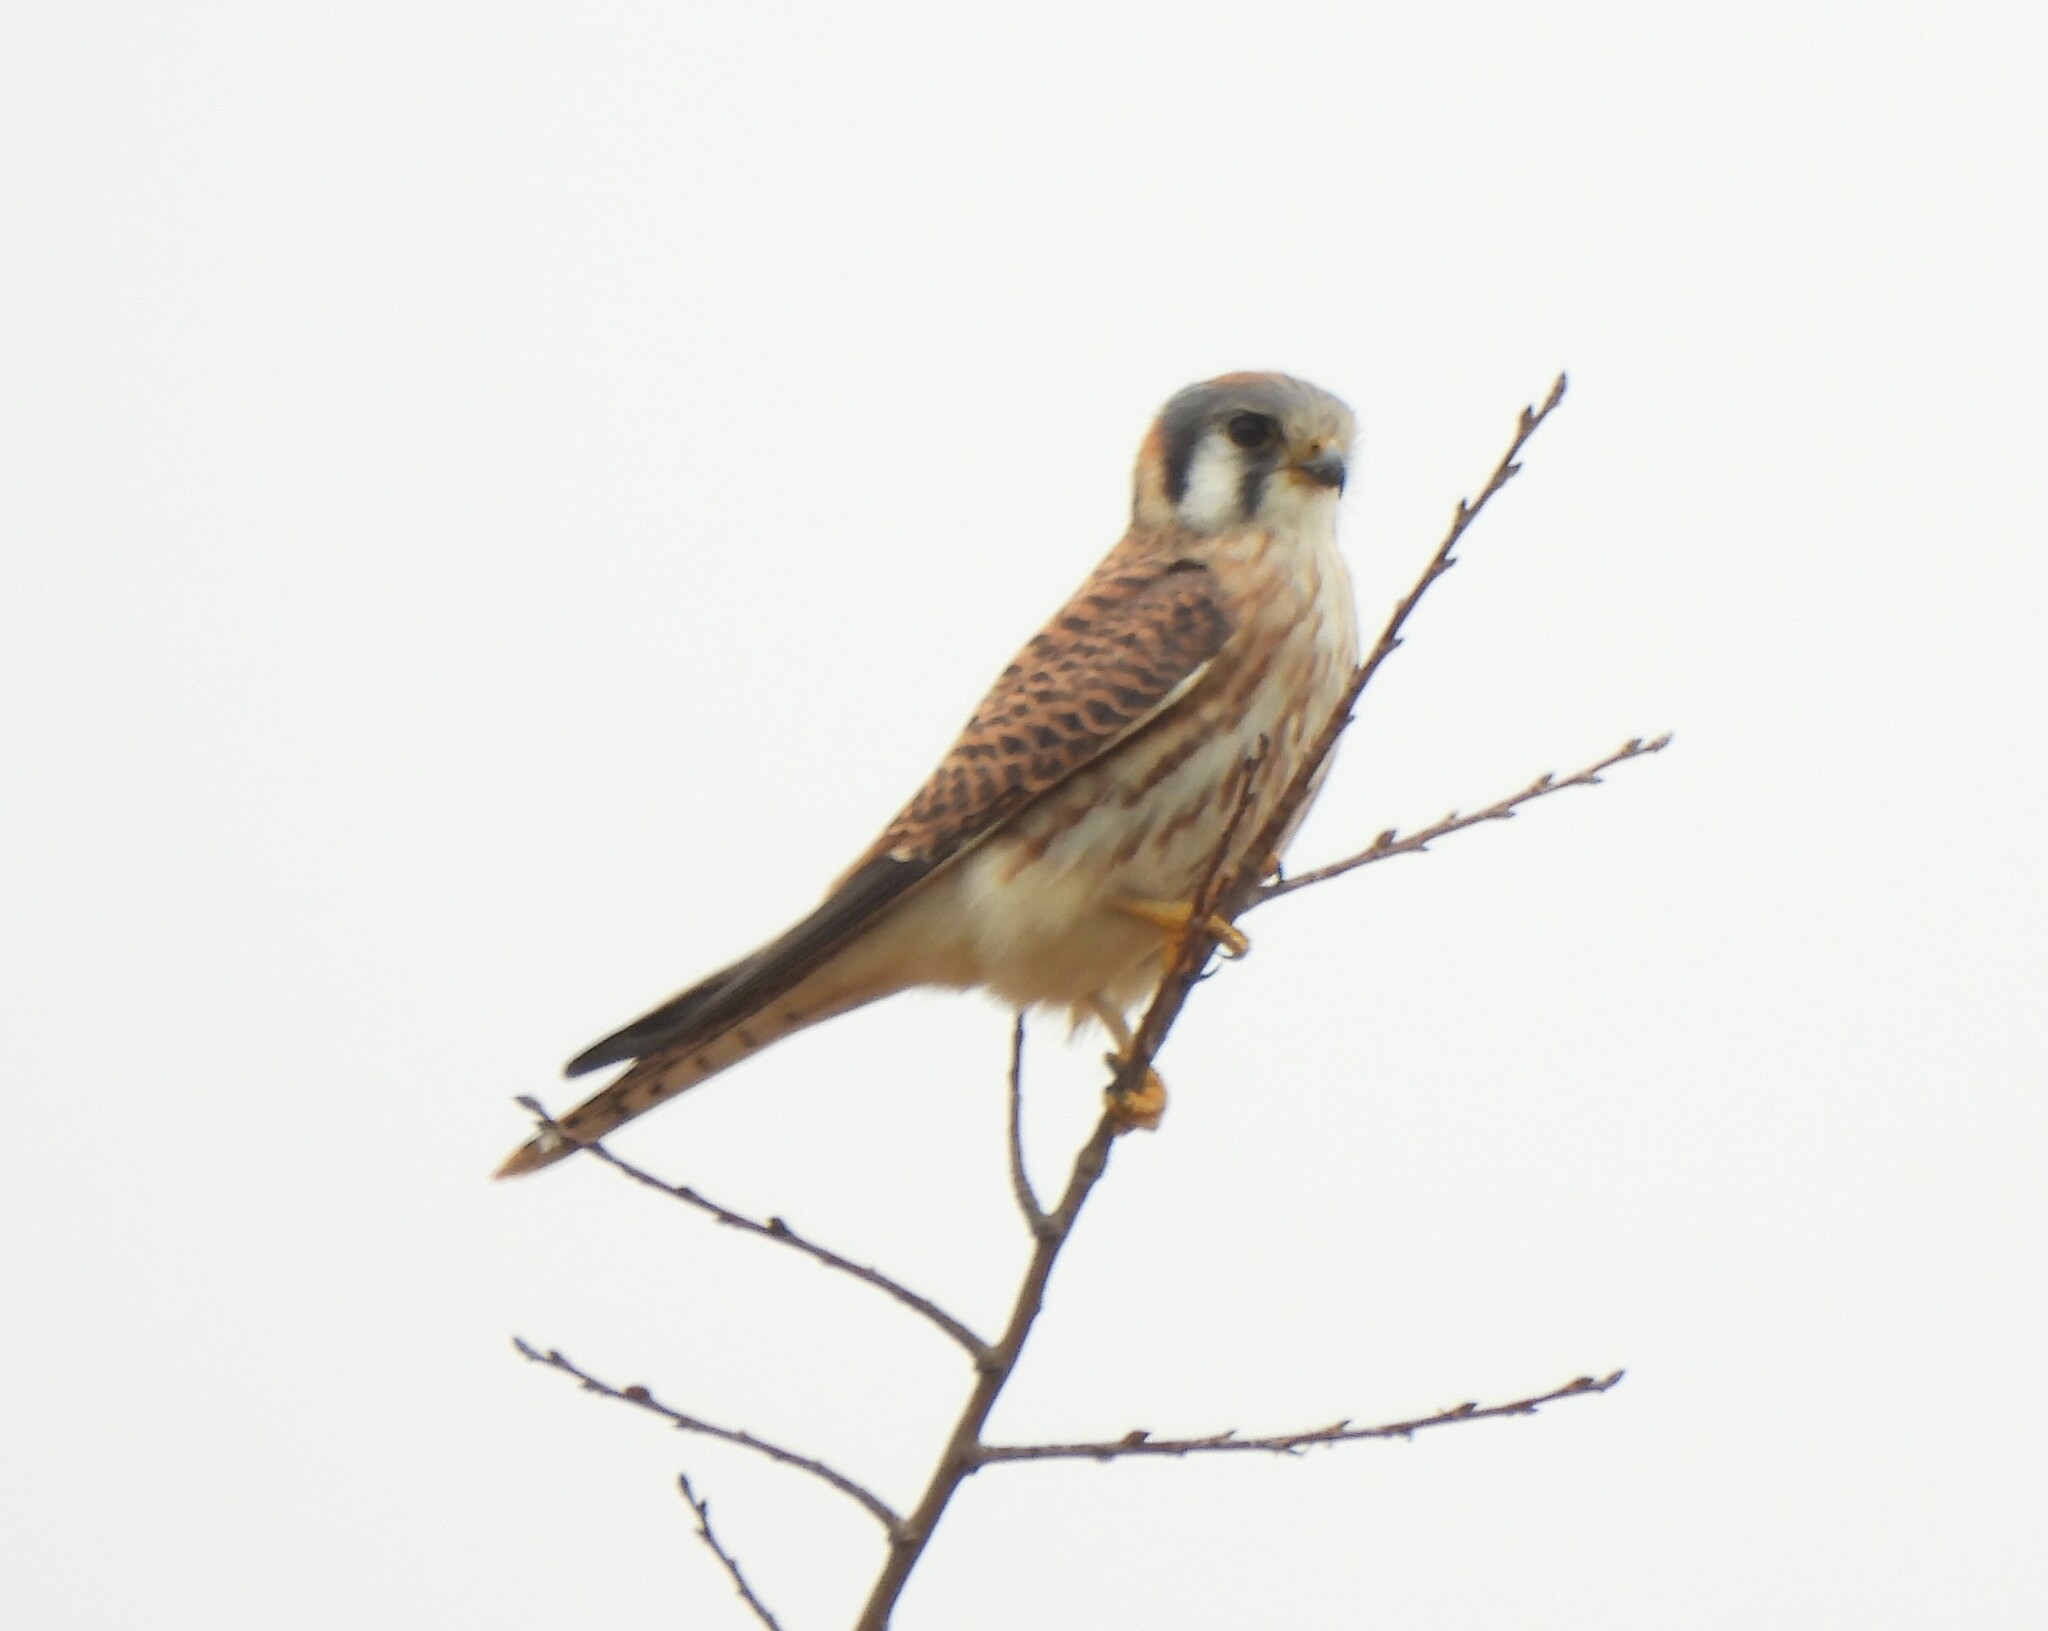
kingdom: Animalia
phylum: Chordata
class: Aves
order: Falconiformes
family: Falconidae
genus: Falco
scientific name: Falco sparverius
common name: American kestrel
